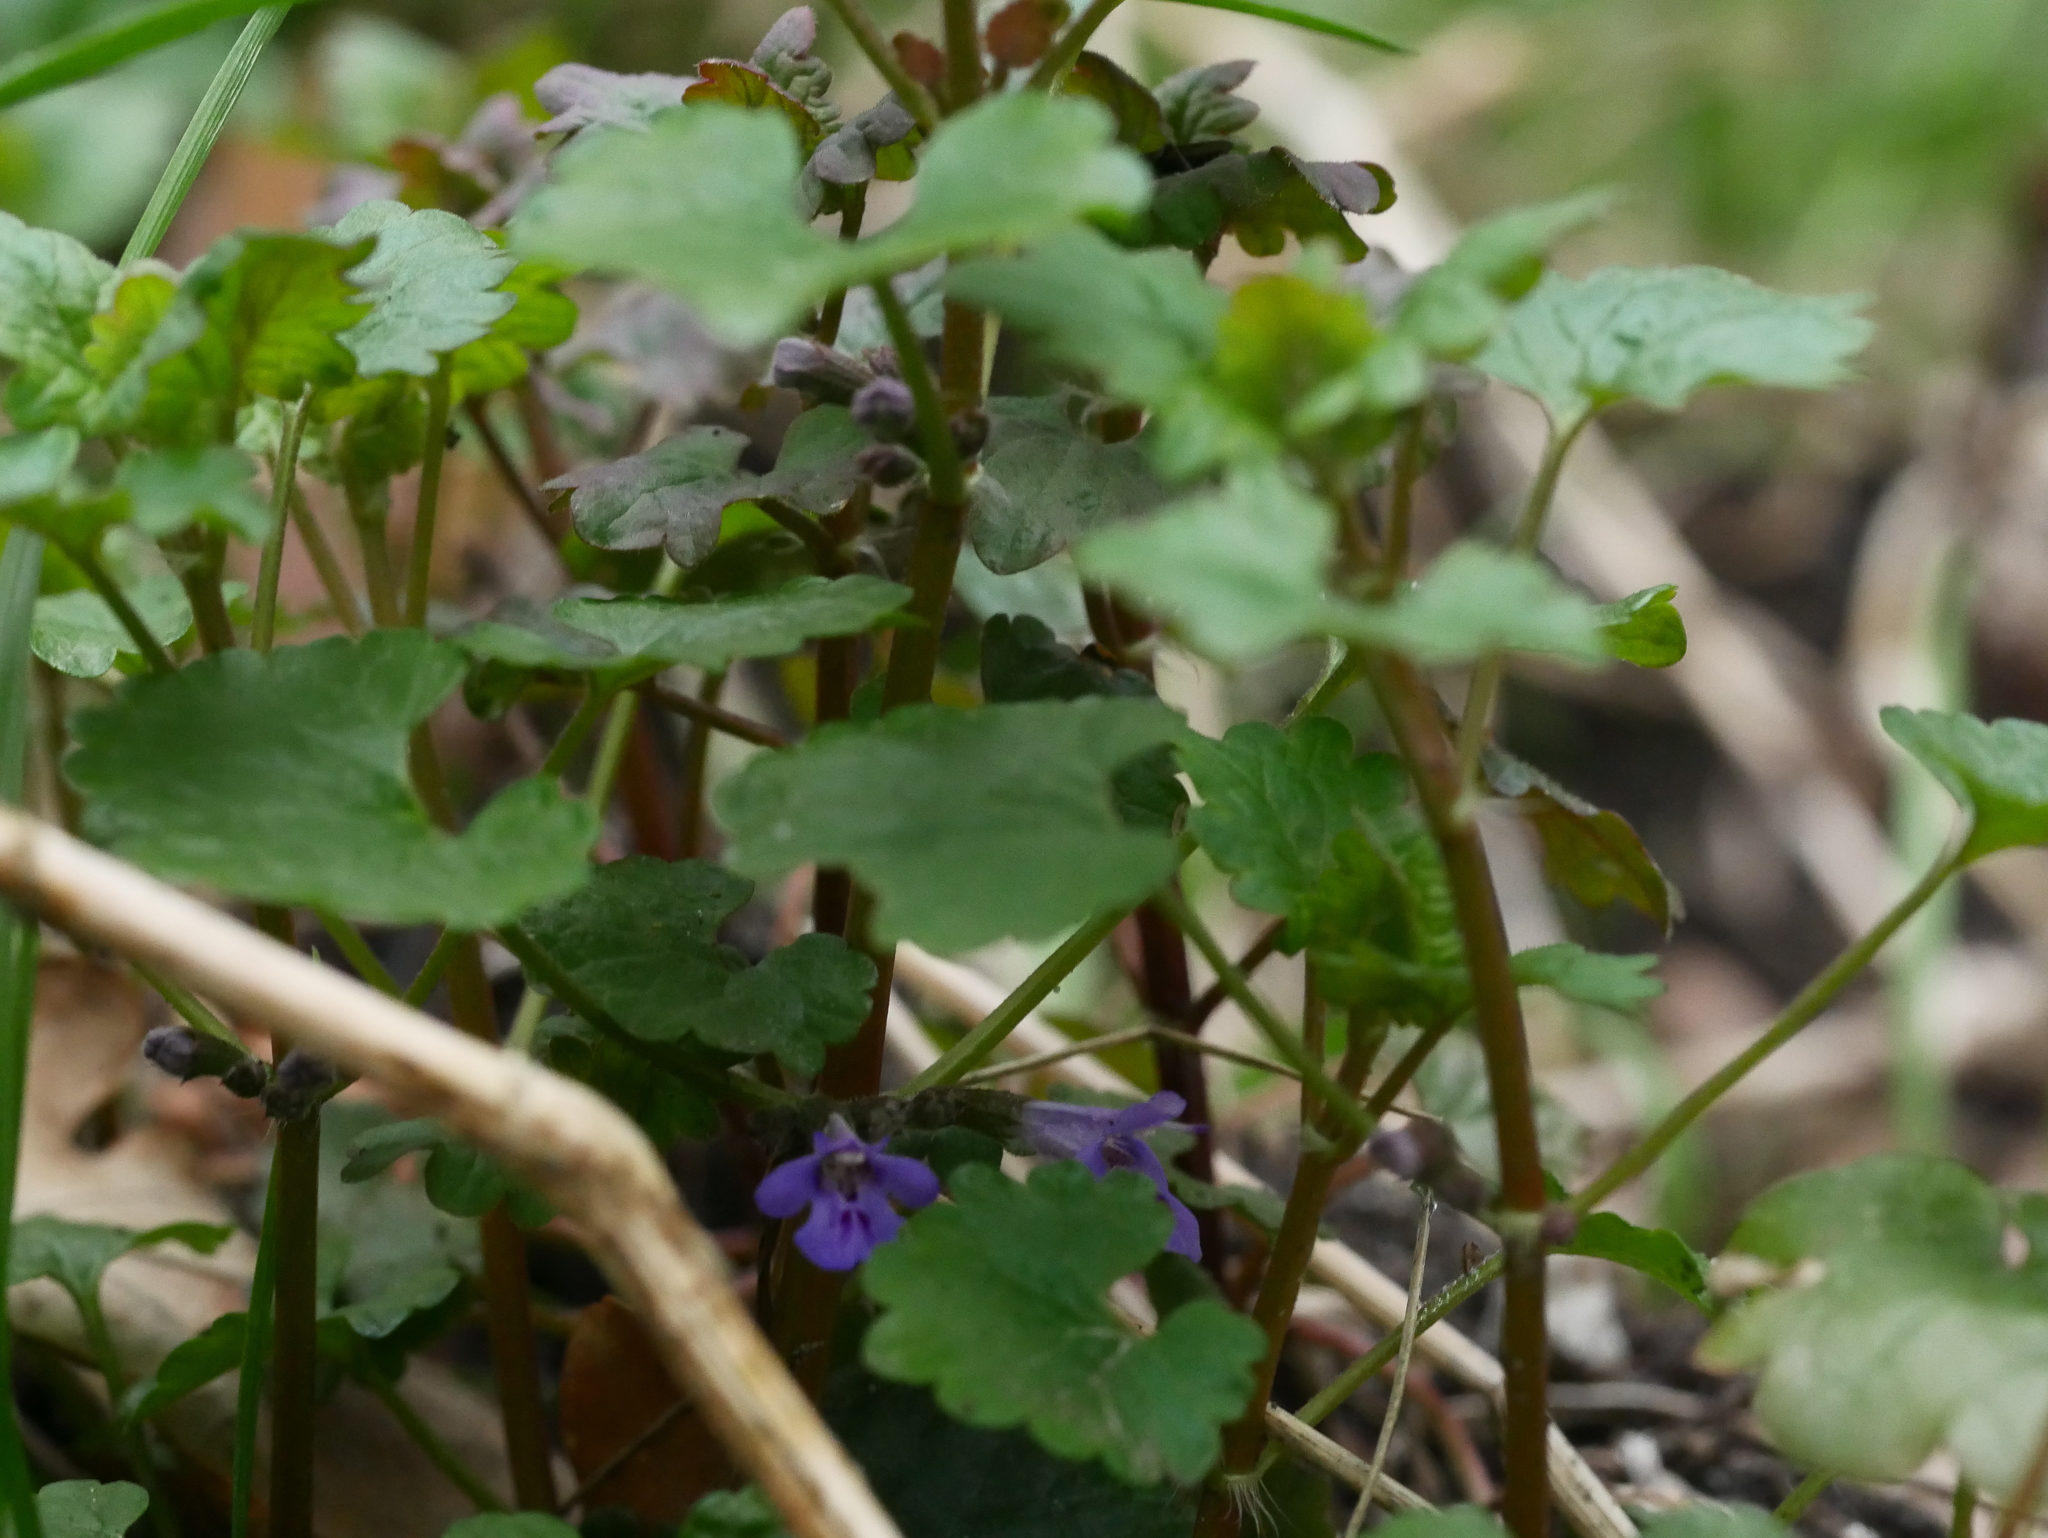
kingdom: Plantae
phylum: Tracheophyta
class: Magnoliopsida
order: Lamiales
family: Lamiaceae
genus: Glechoma
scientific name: Glechoma hederacea
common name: Ground ivy
